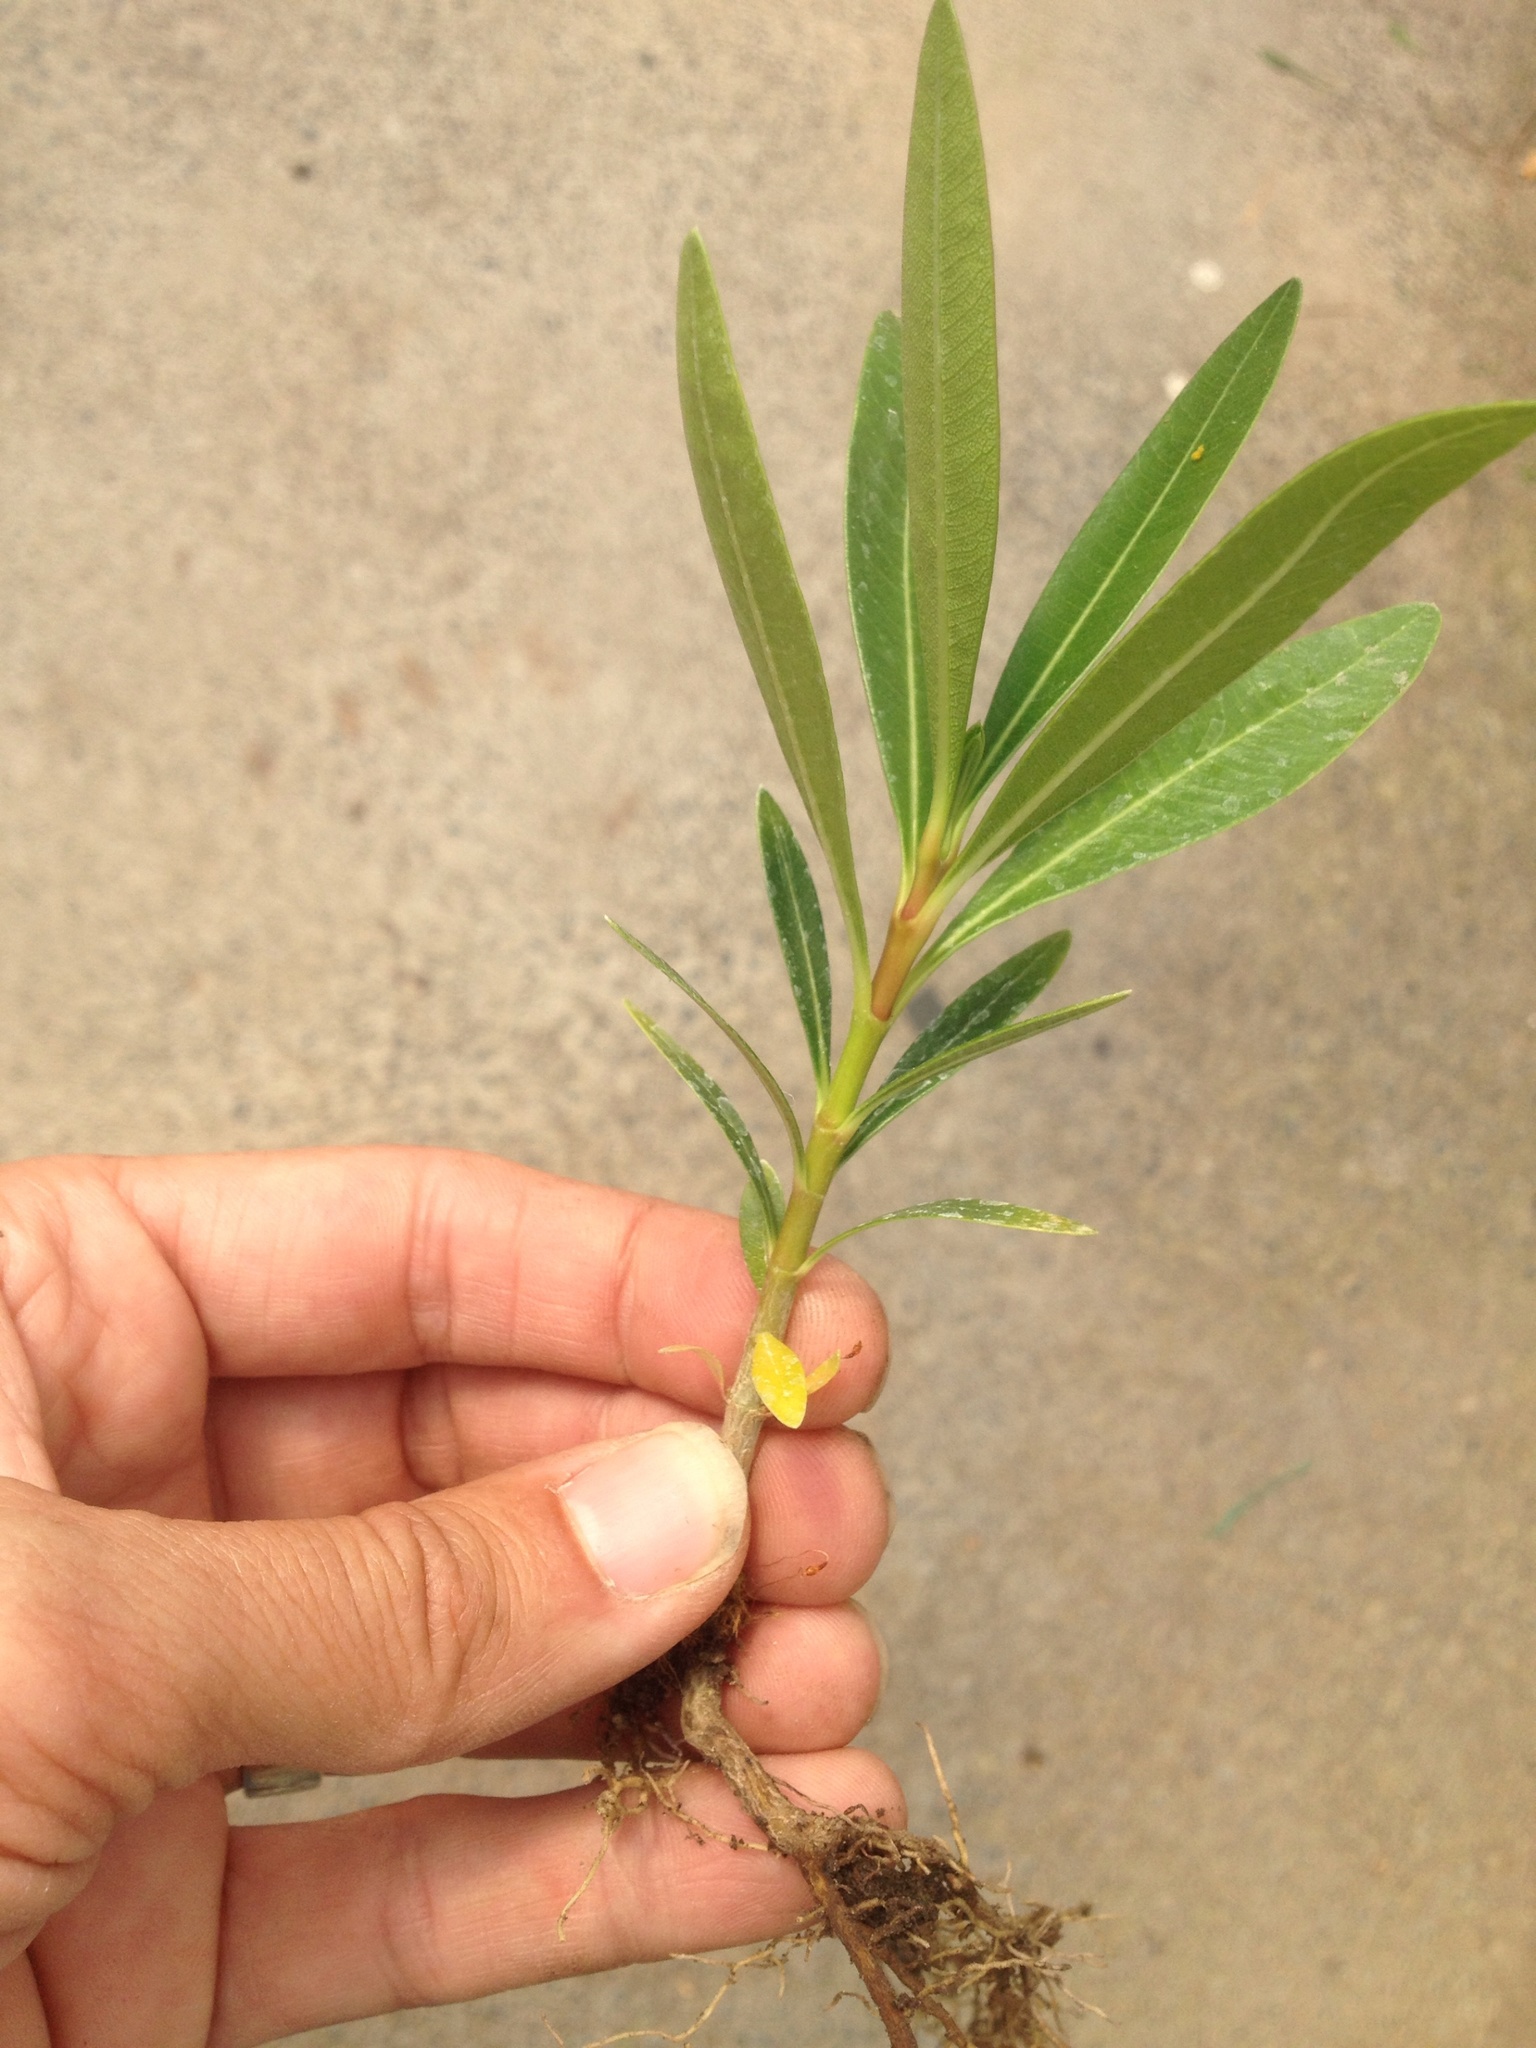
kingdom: Plantae
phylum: Tracheophyta
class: Magnoliopsida
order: Gentianales
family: Apocynaceae
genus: Nerium
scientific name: Nerium oleander
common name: Oleander
